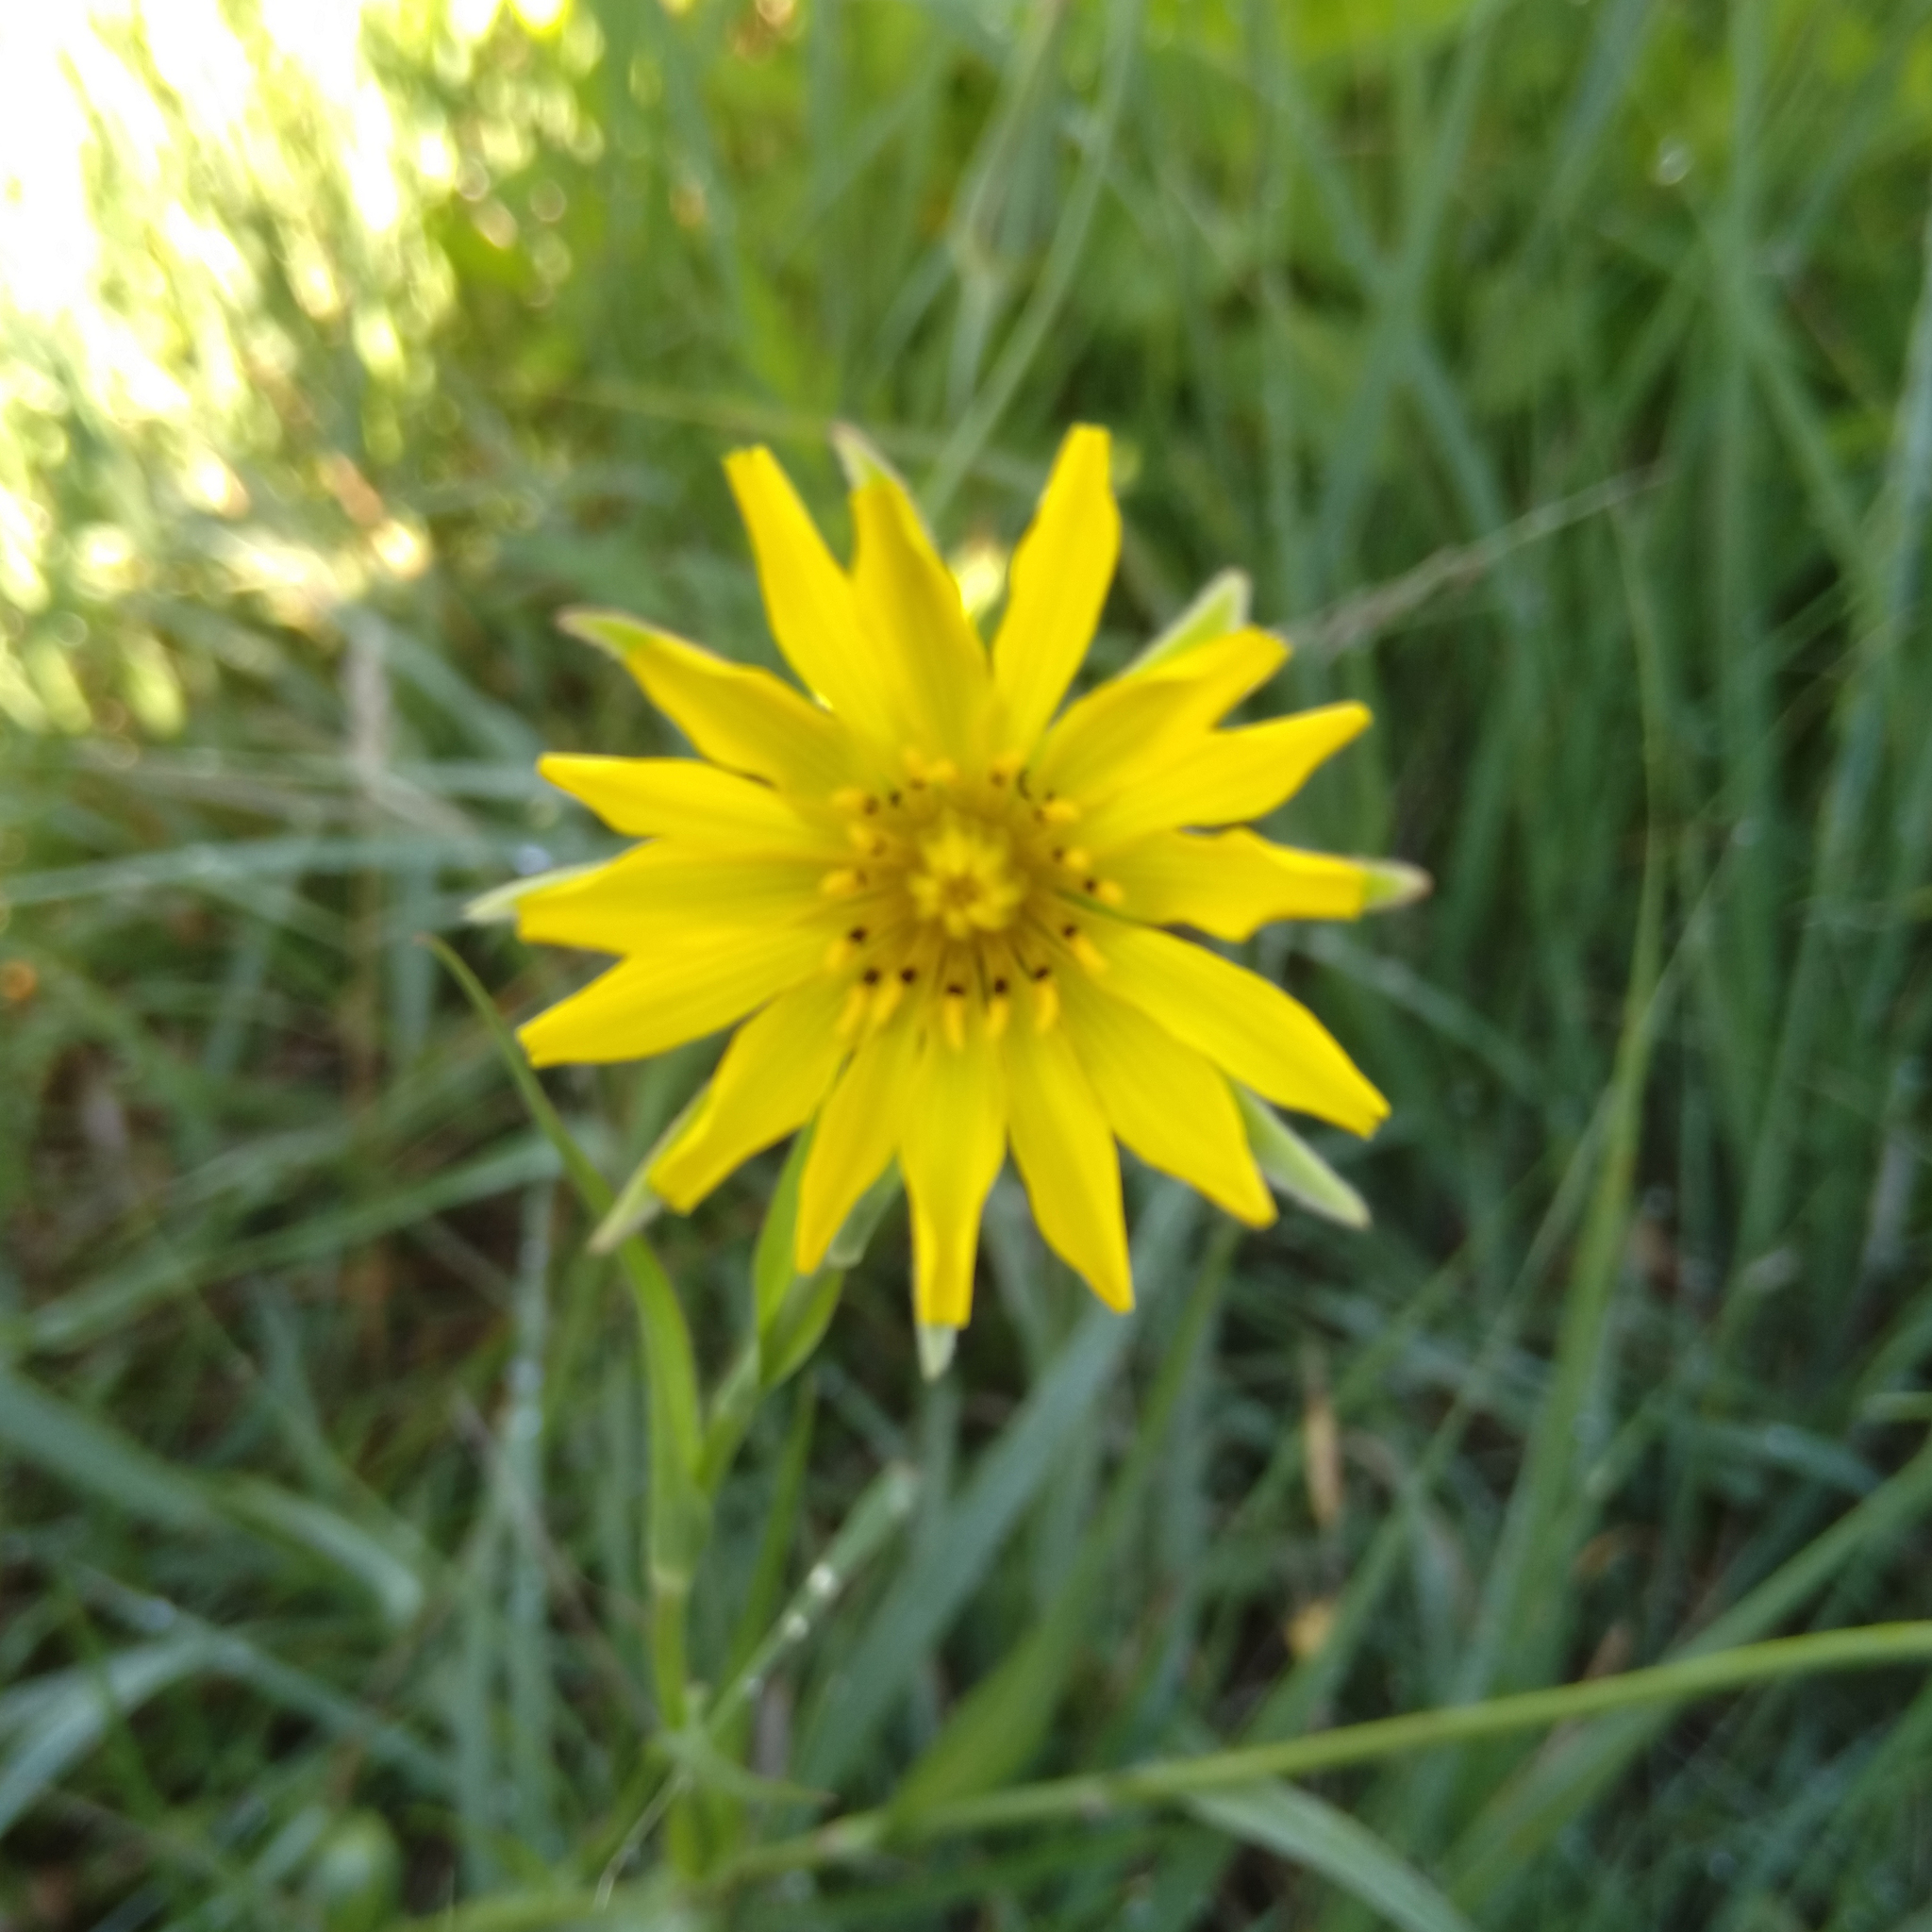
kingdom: Plantae
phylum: Tracheophyta
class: Magnoliopsida
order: Asterales
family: Asteraceae
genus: Tragopogon
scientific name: Tragopogon pratensis
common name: Goat's-beard
